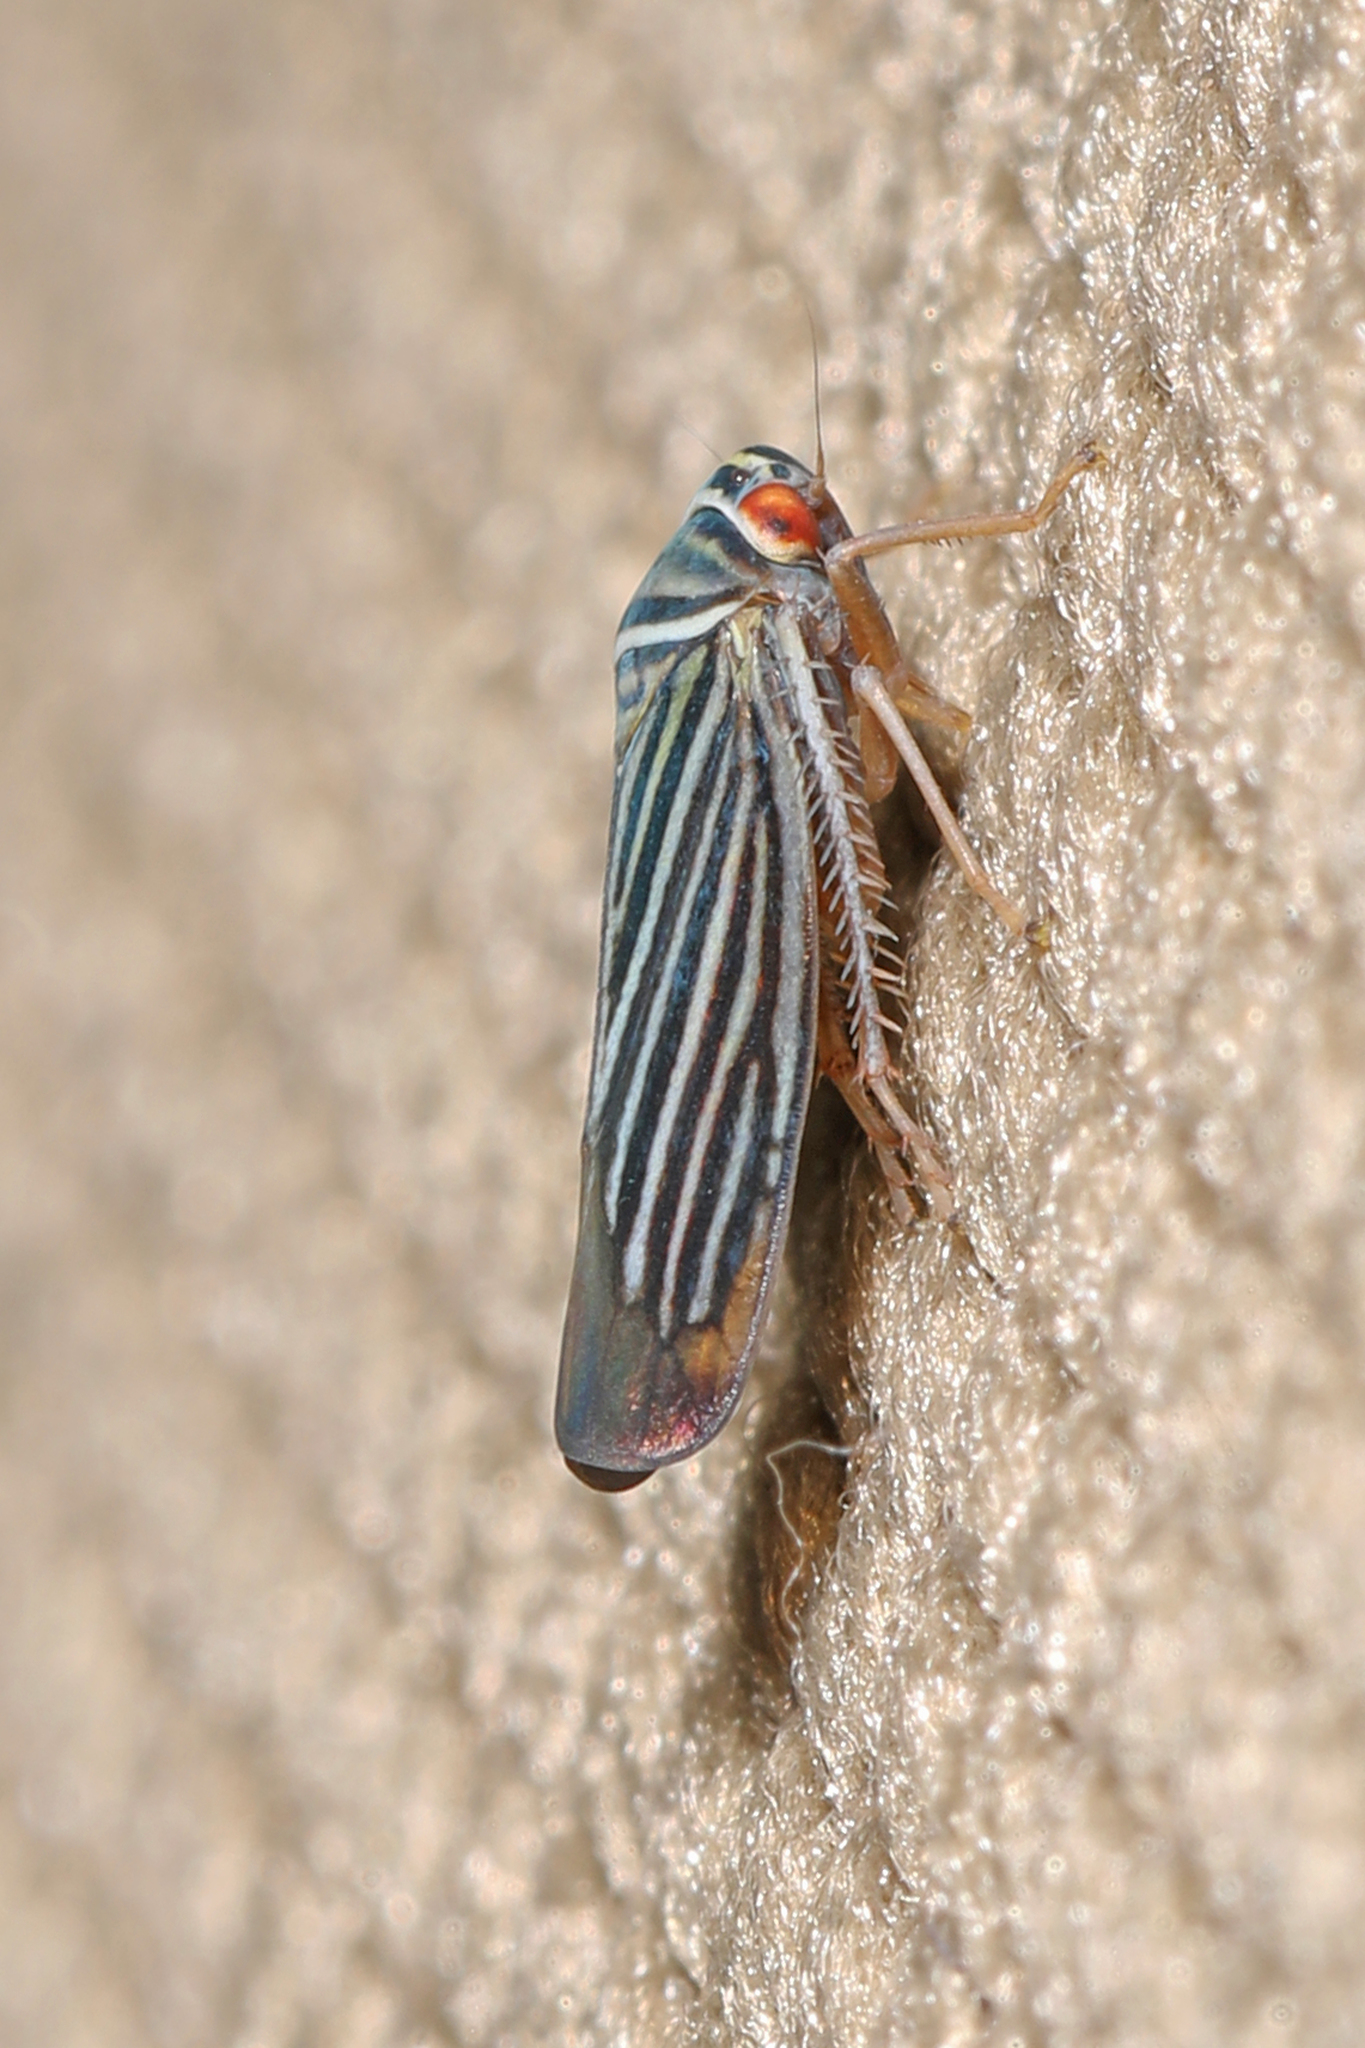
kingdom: Animalia
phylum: Arthropoda
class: Insecta
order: Hemiptera
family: Cicadellidae
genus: Tylozygus
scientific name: Tylozygus bifidus
